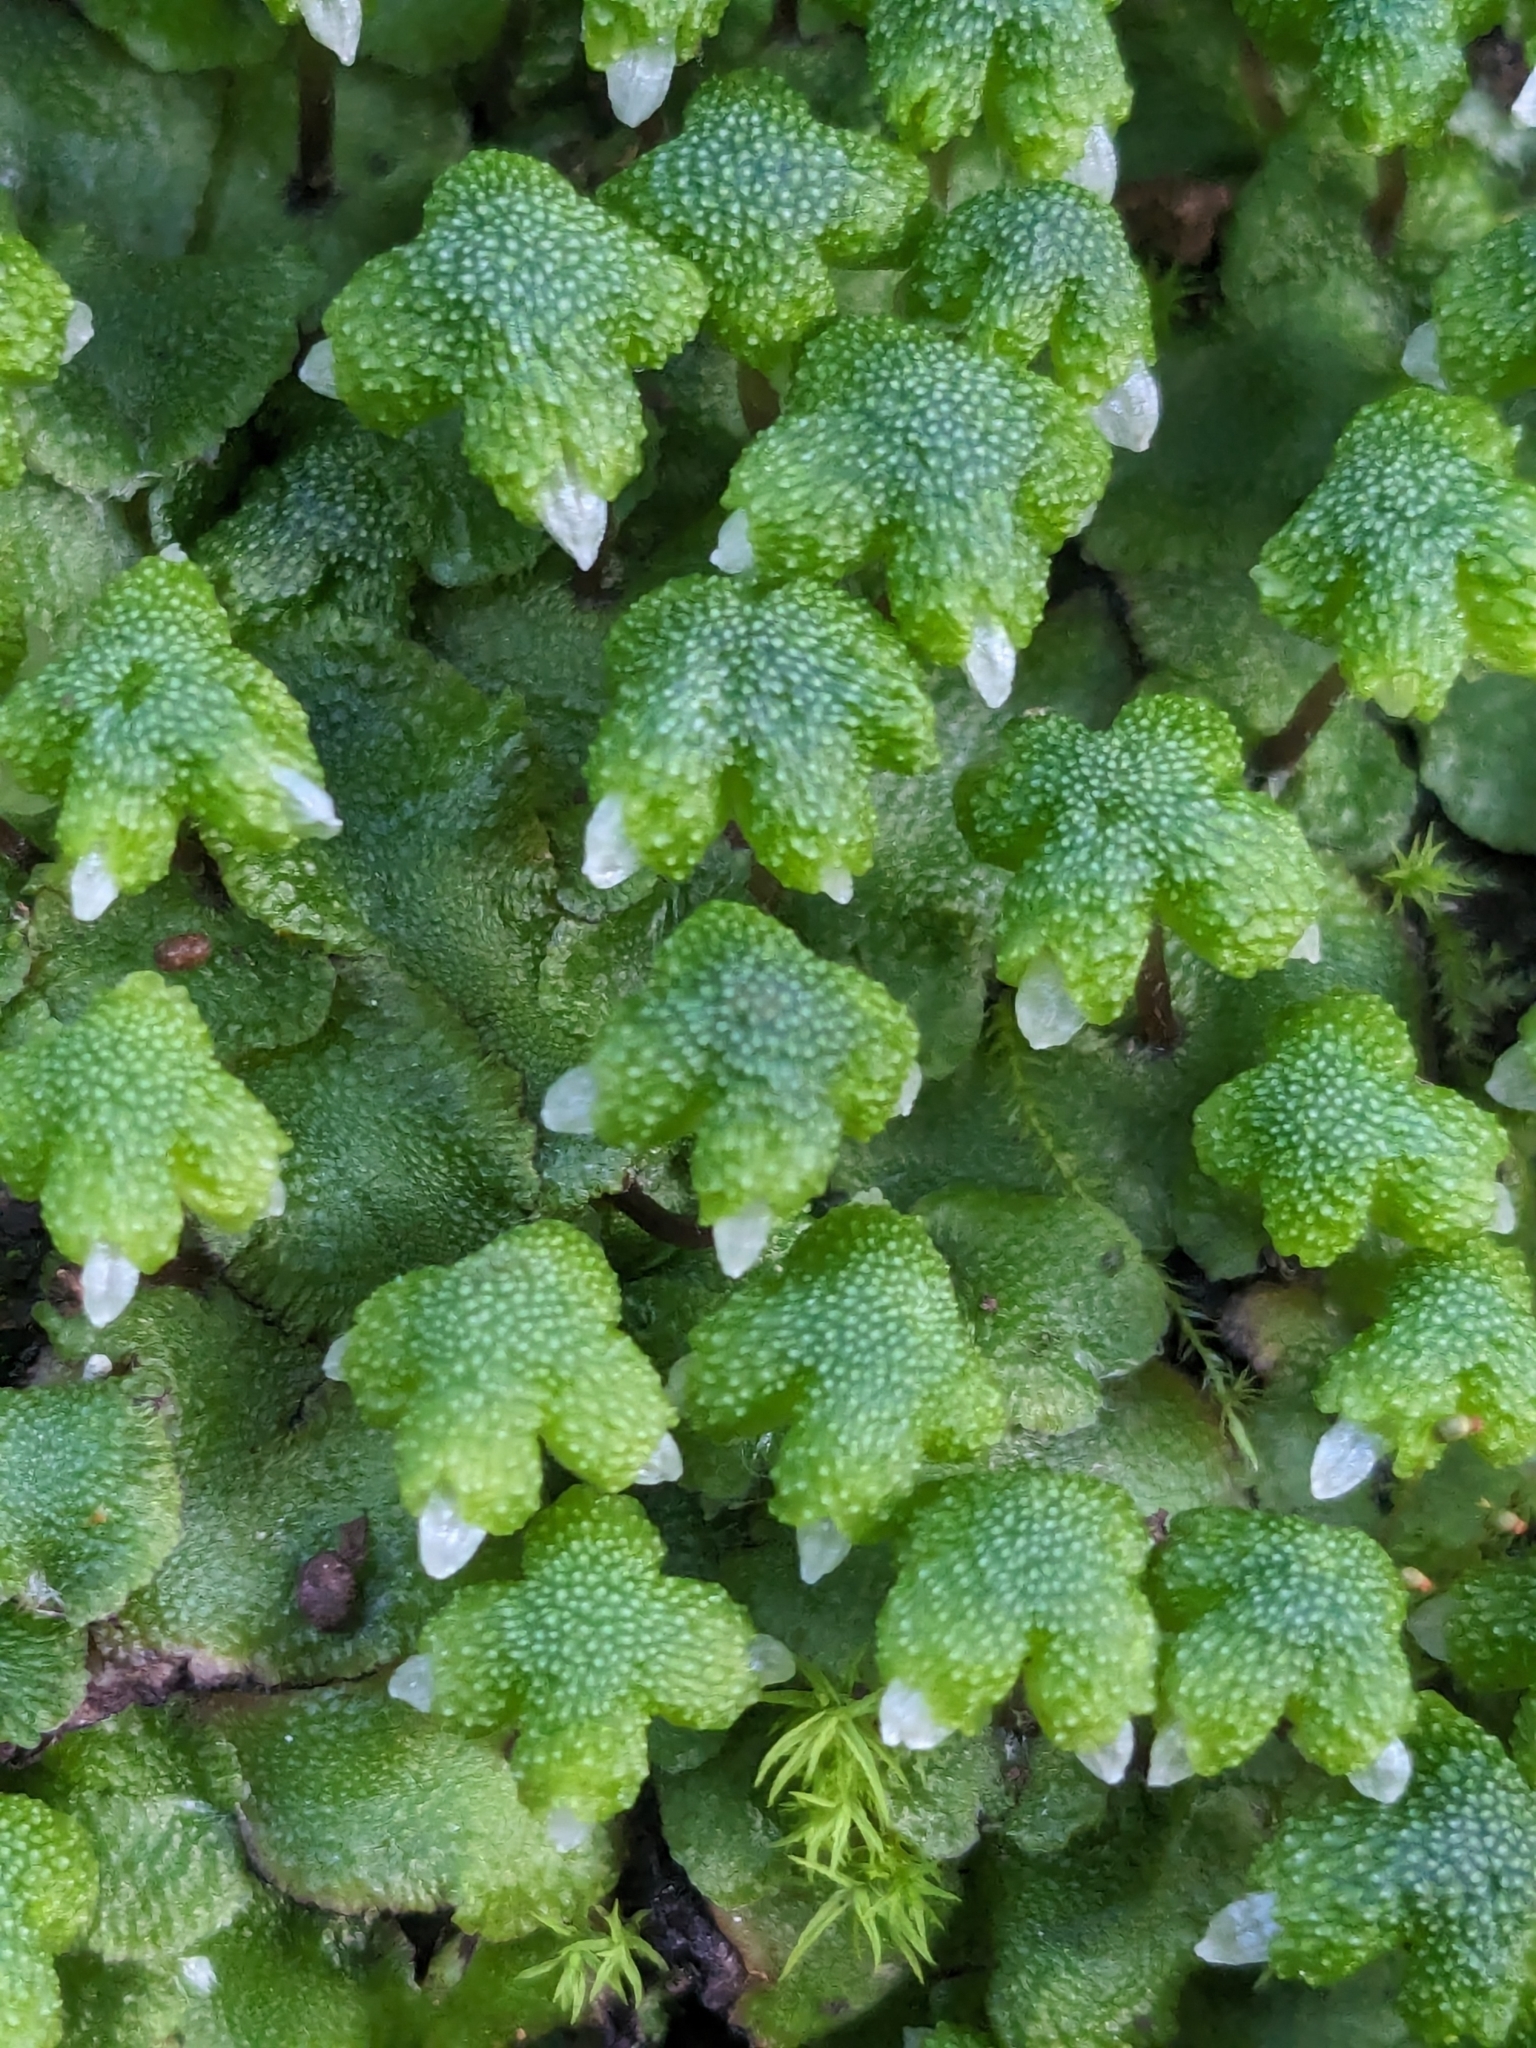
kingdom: Plantae
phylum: Marchantiophyta
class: Marchantiopsida
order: Marchantiales
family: Aytoniaceae
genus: Asterella
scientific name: Asterella californica
